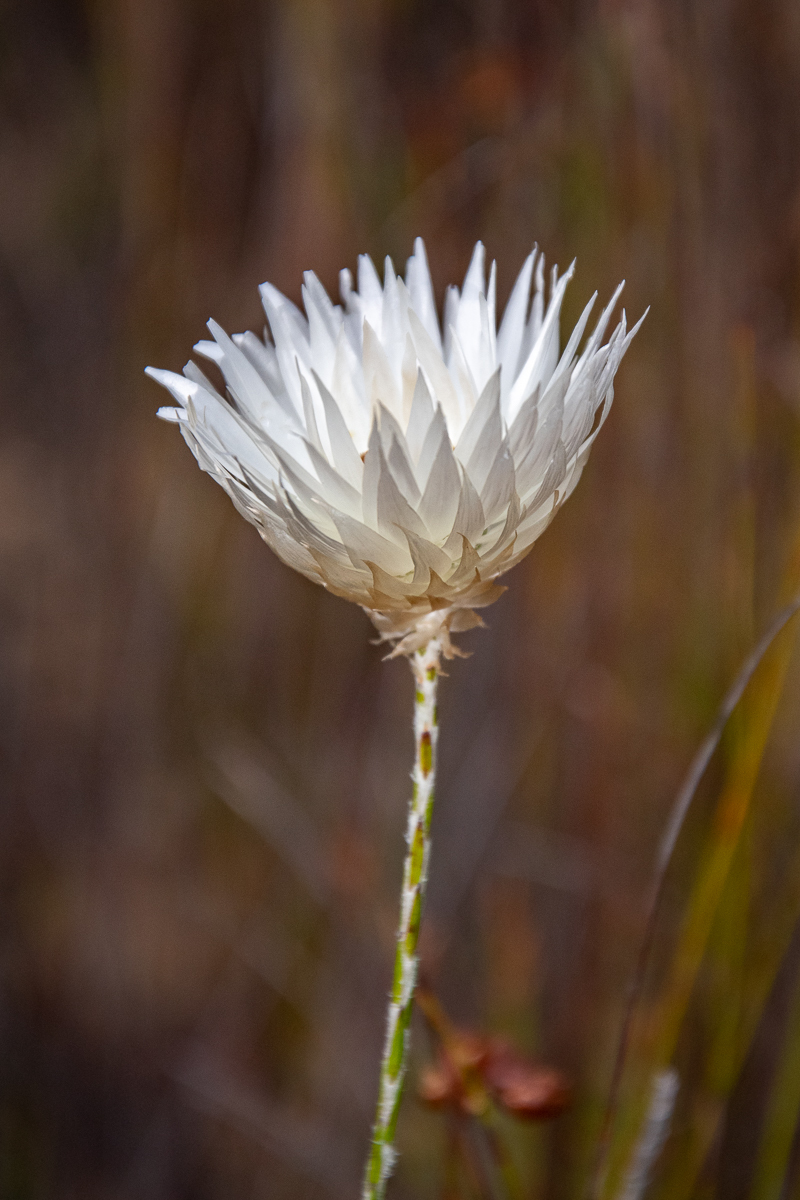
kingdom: Plantae
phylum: Tracheophyta
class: Magnoliopsida
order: Asterales
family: Asteraceae
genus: Edmondia
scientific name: Edmondia sesamoides
